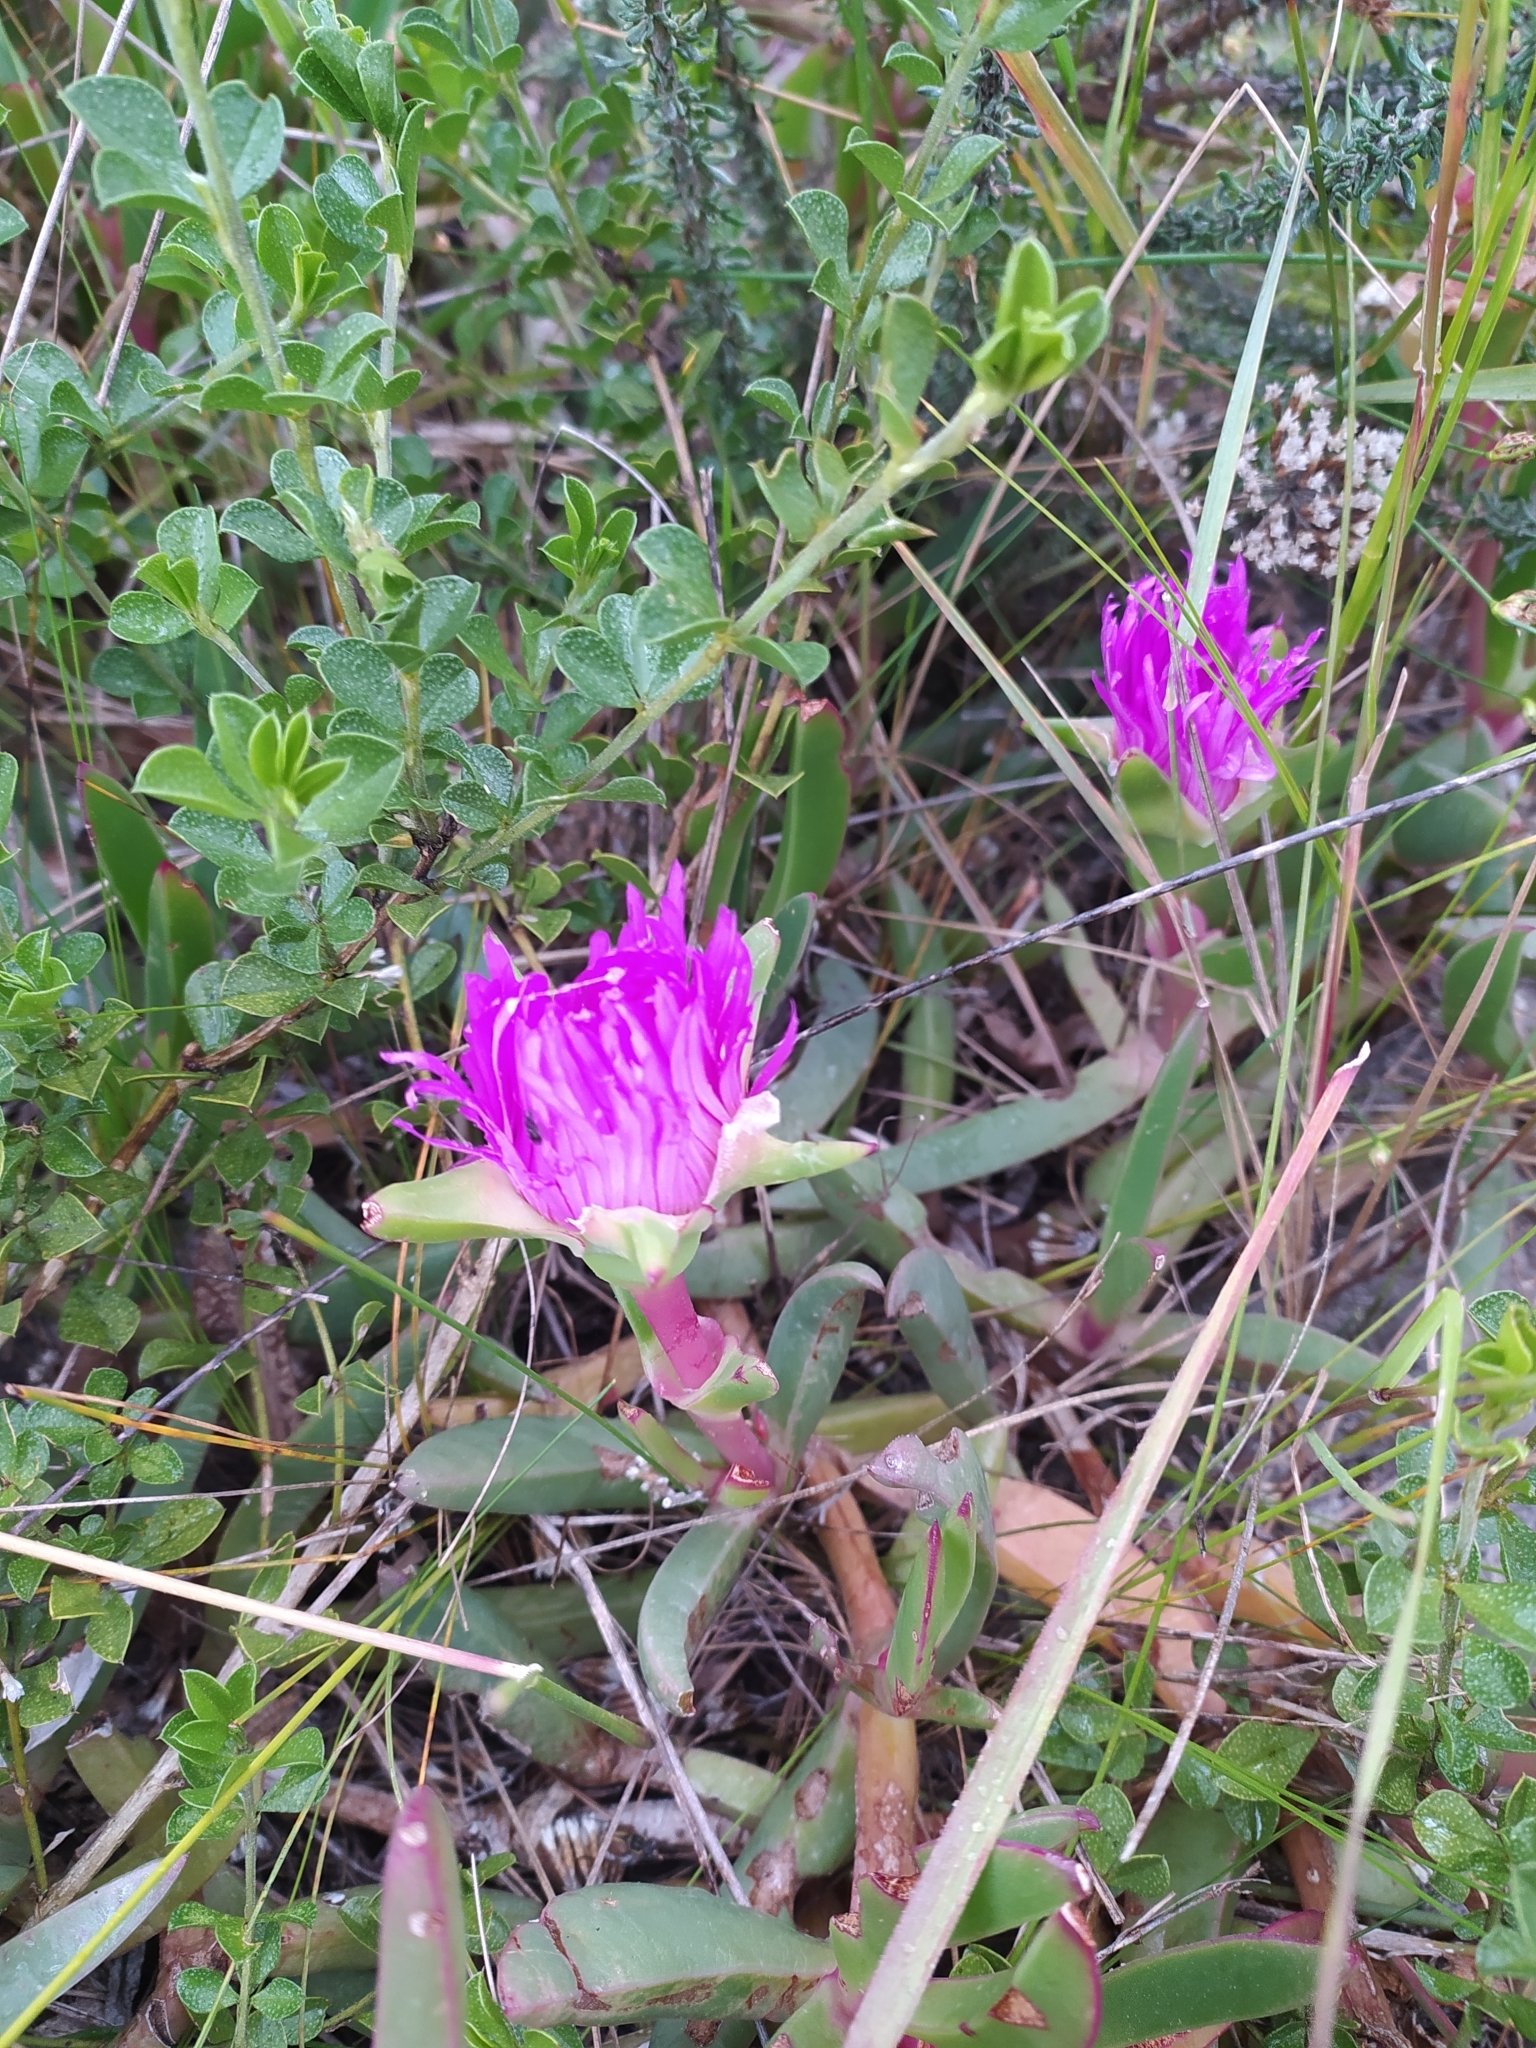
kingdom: Plantae
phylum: Tracheophyta
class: Magnoliopsida
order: Caryophyllales
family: Aizoaceae
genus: Carpobrotus
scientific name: Carpobrotus acinaciformis
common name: Sally-my-handsome
